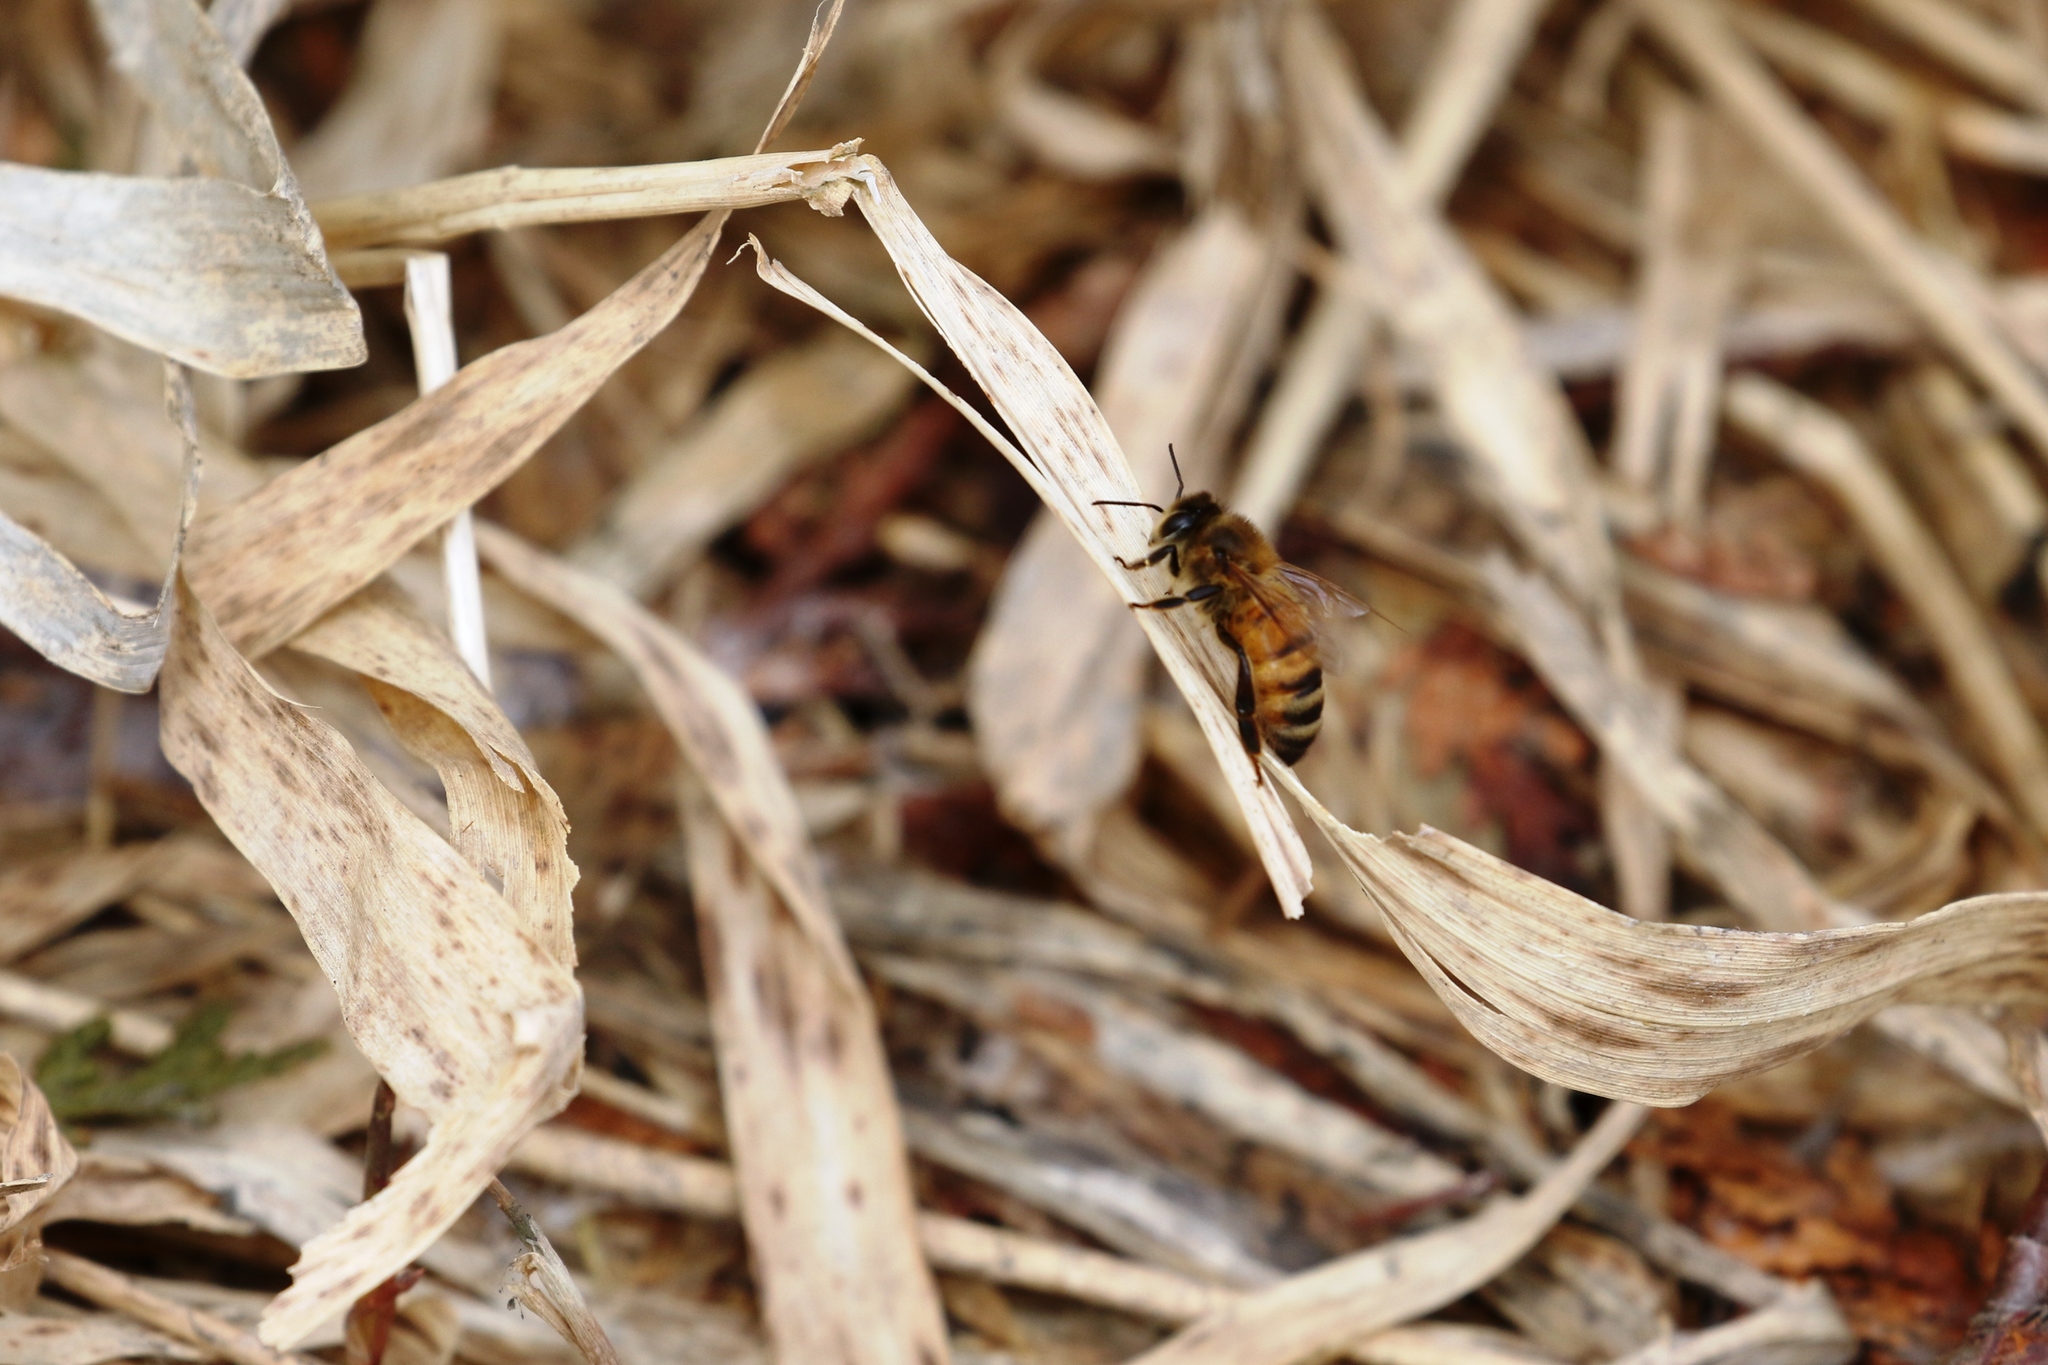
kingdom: Animalia
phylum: Arthropoda
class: Insecta
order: Hymenoptera
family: Apidae
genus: Apis
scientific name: Apis mellifera
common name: Honey bee
